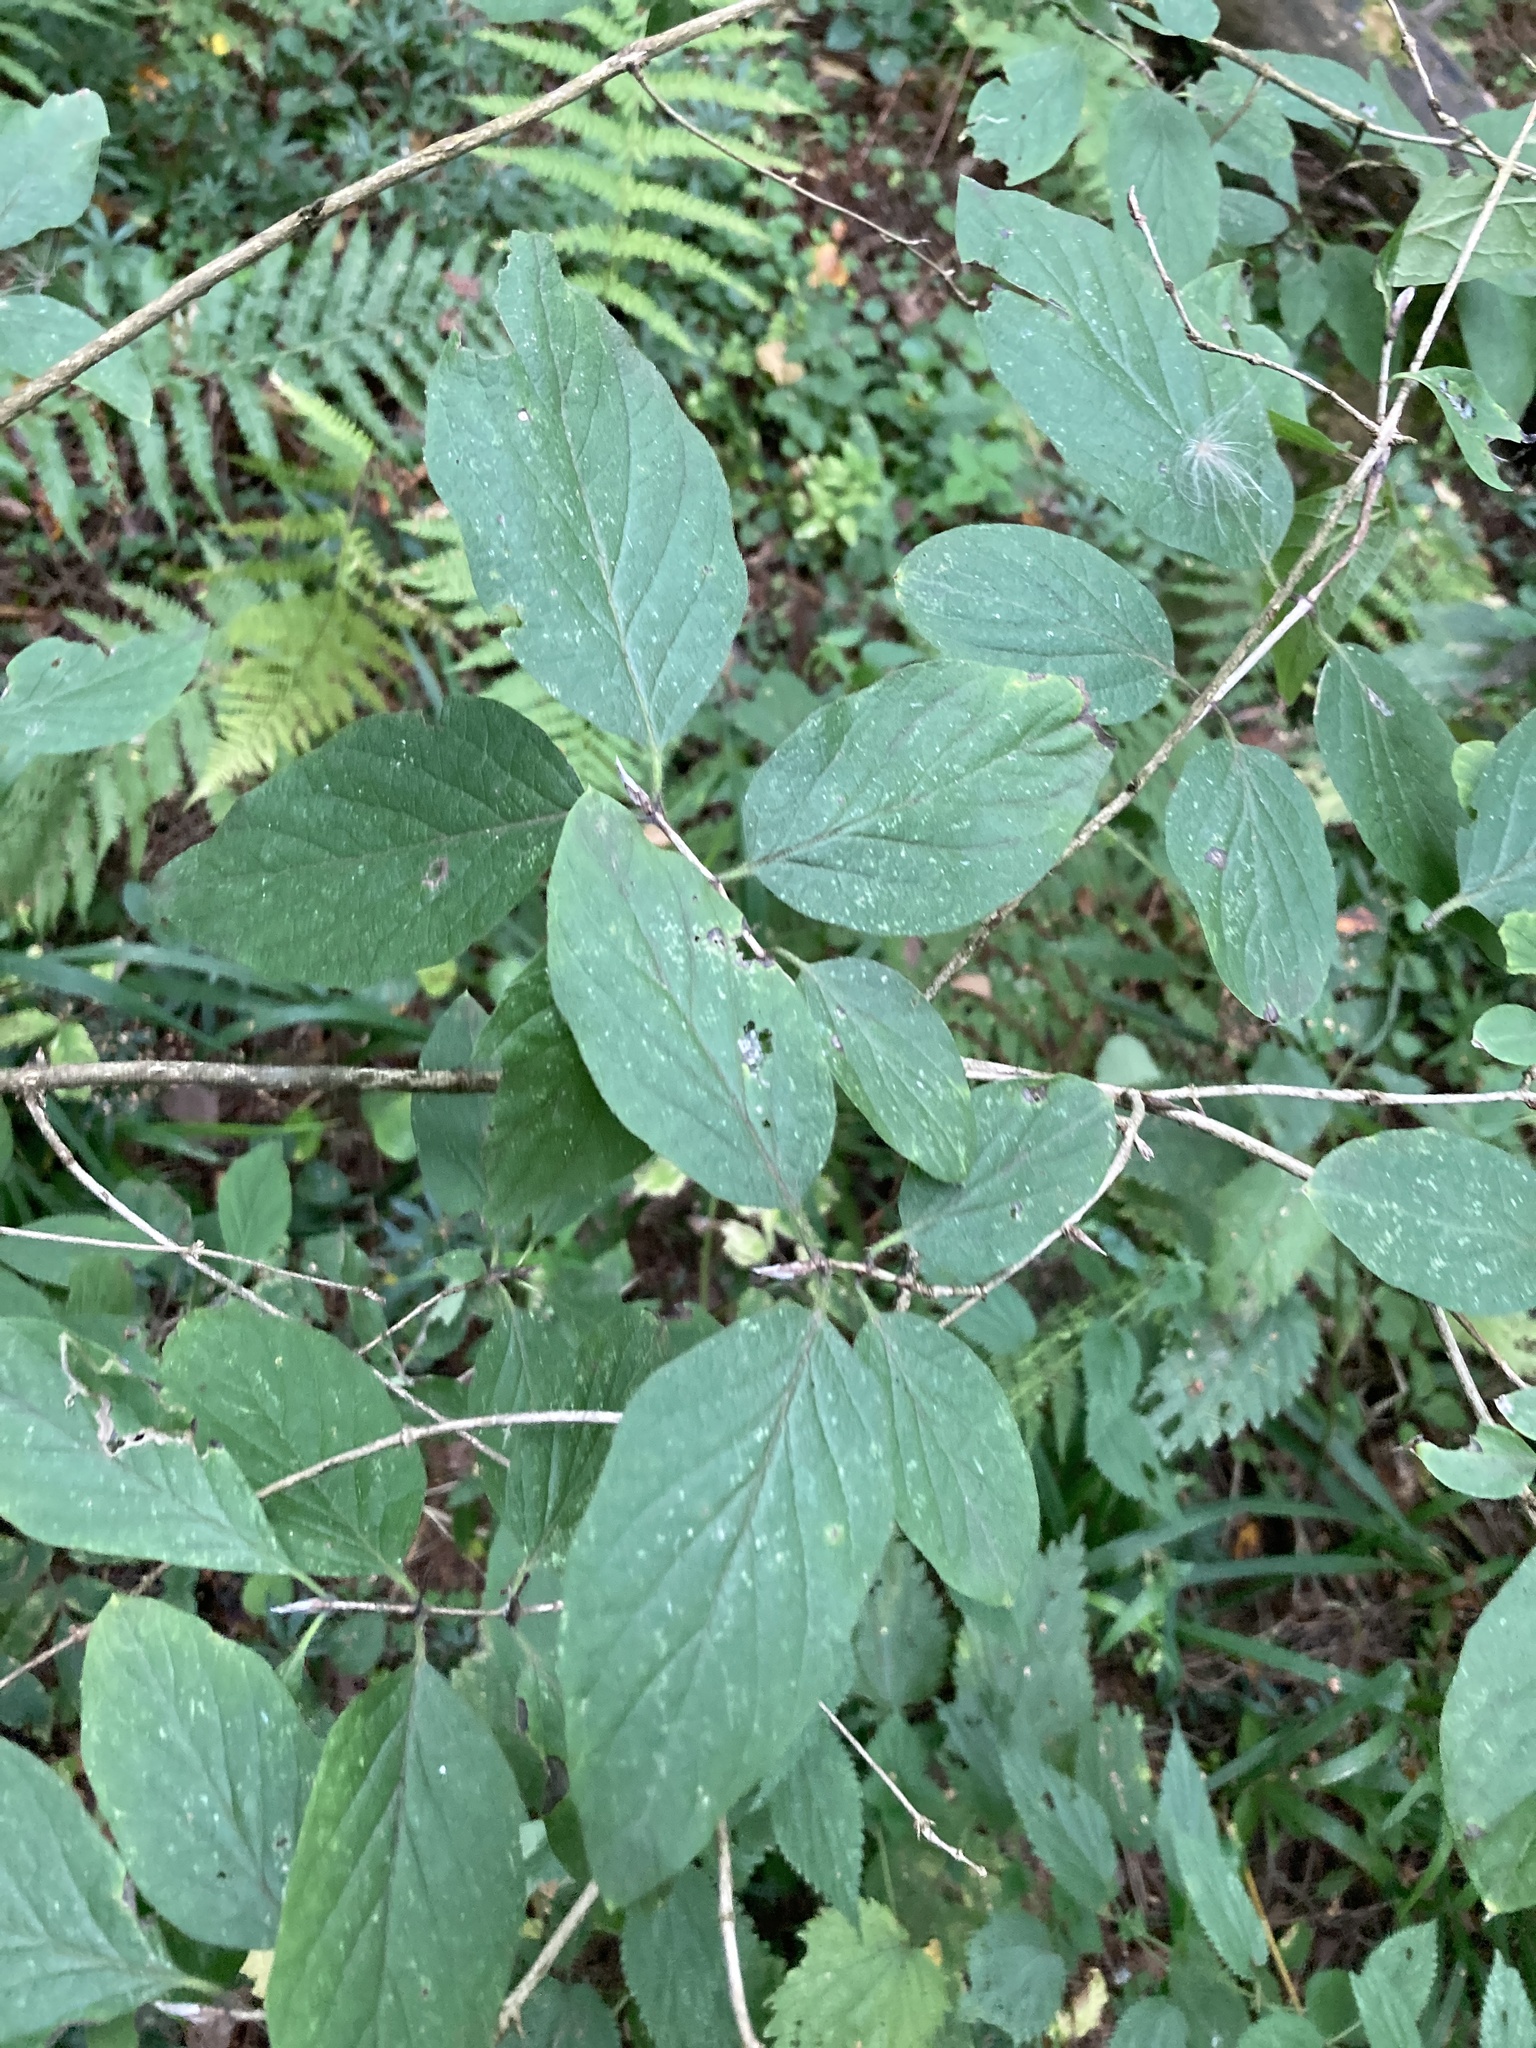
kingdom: Plantae
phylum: Tracheophyta
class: Magnoliopsida
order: Dipsacales
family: Caprifoliaceae
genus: Lonicera
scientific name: Lonicera xylosteum
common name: Fly honeysuckle
